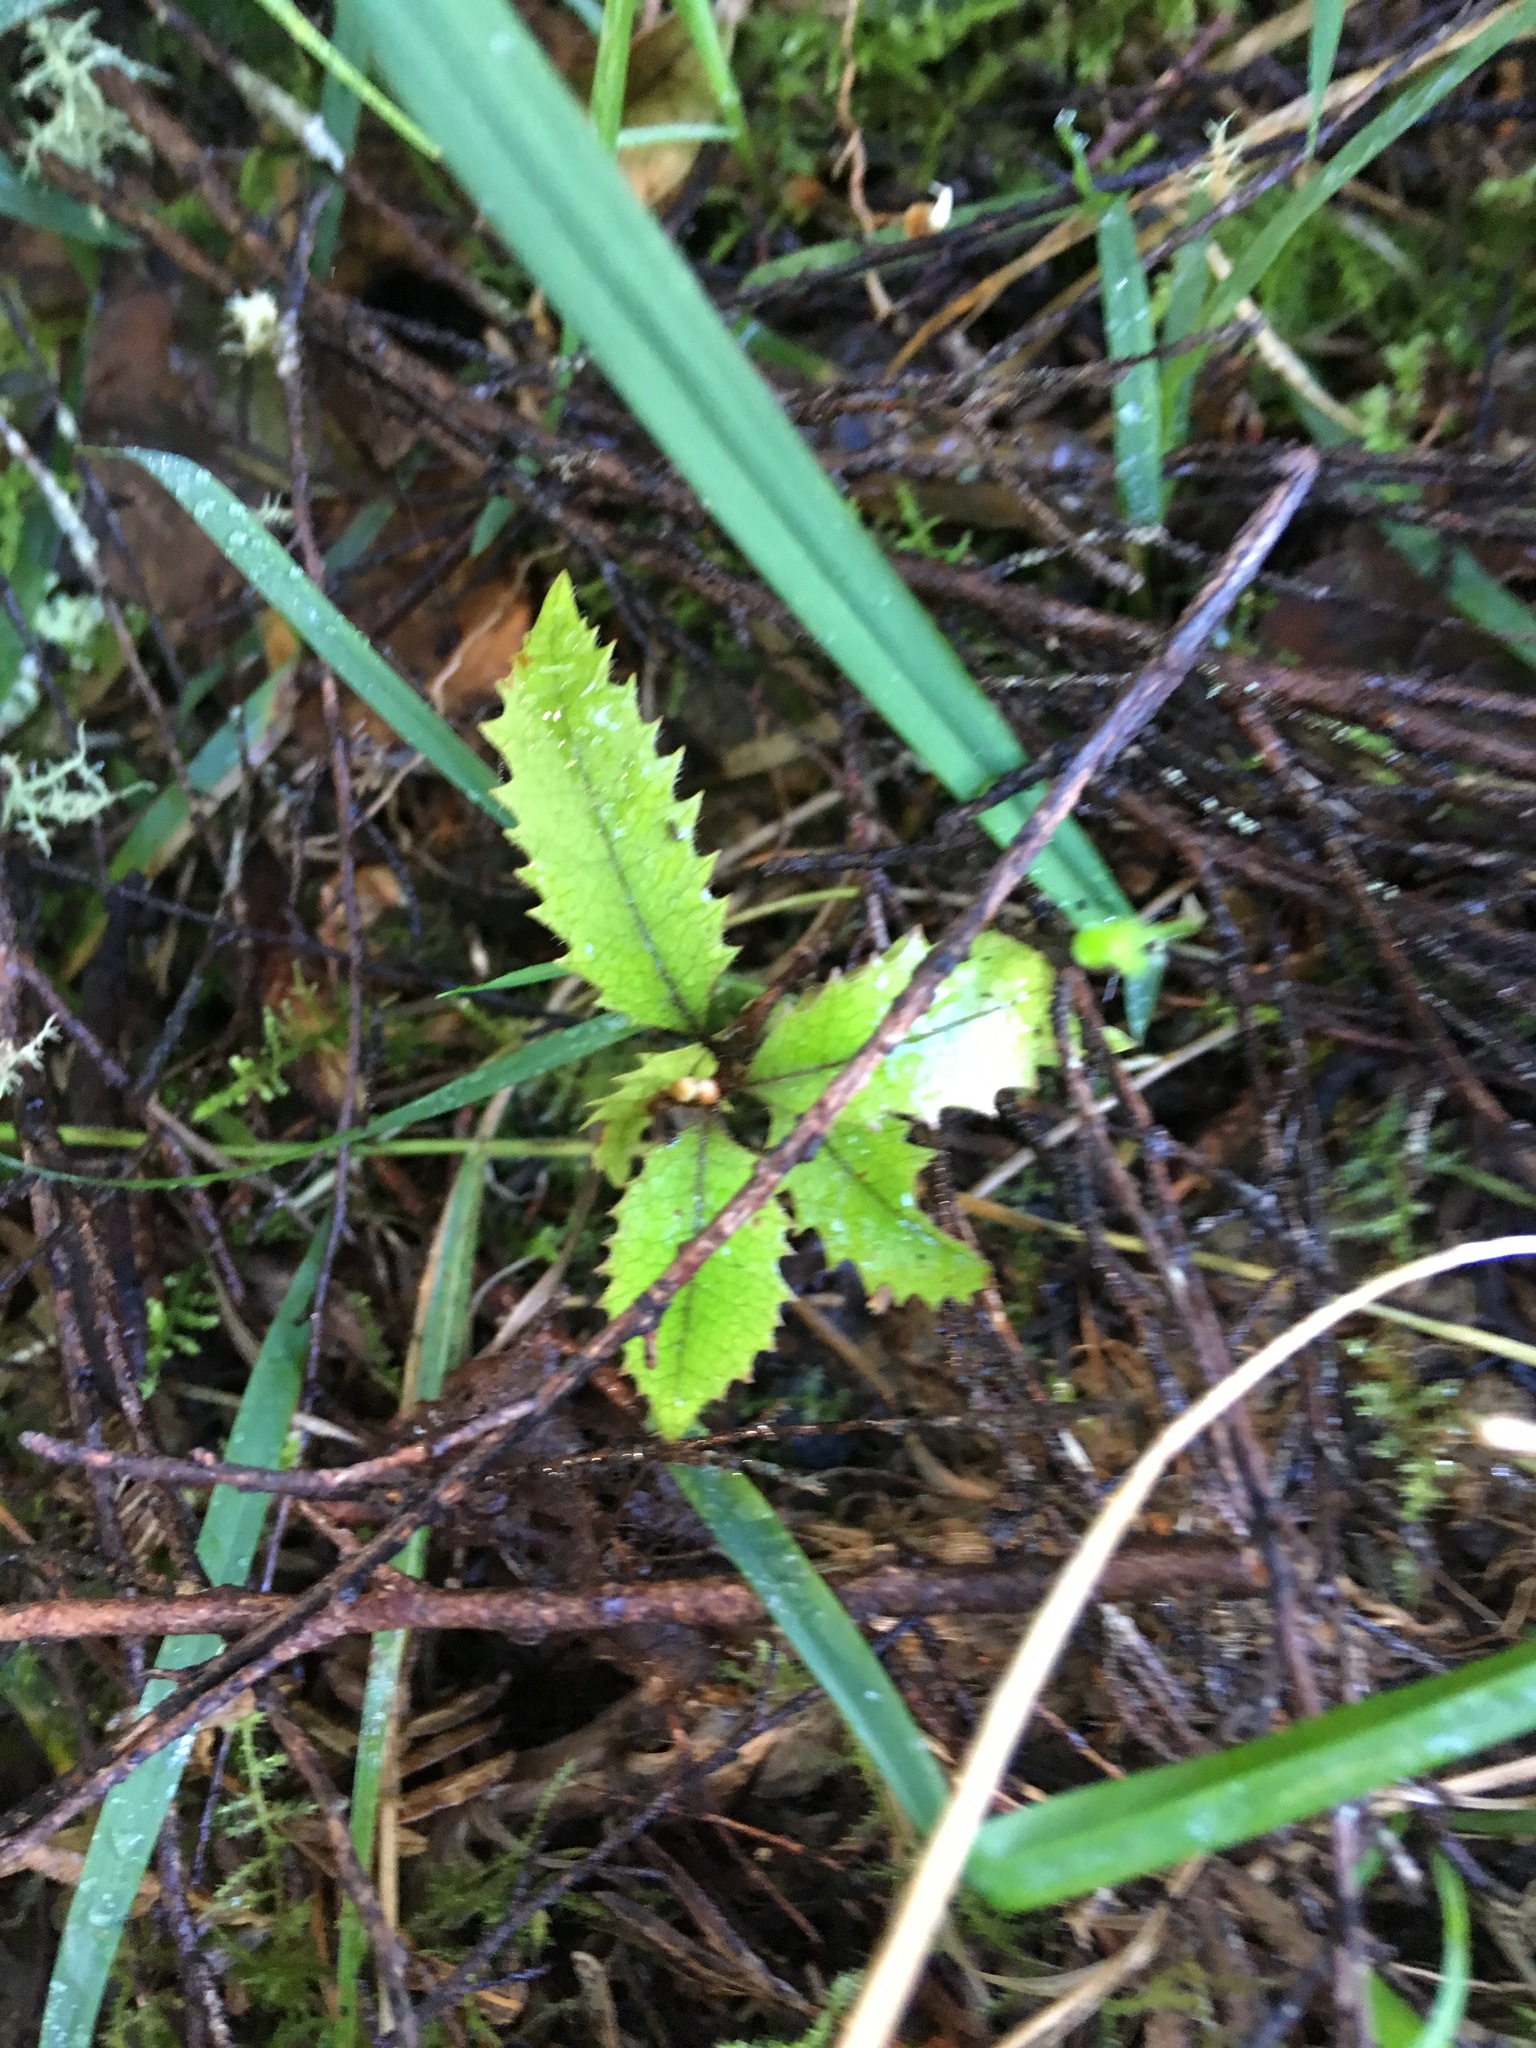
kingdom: Plantae
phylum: Tracheophyta
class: Magnoliopsida
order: Proteales
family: Proteaceae
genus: Knightia
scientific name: Knightia excelsa
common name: New zealand-honeysuckle
